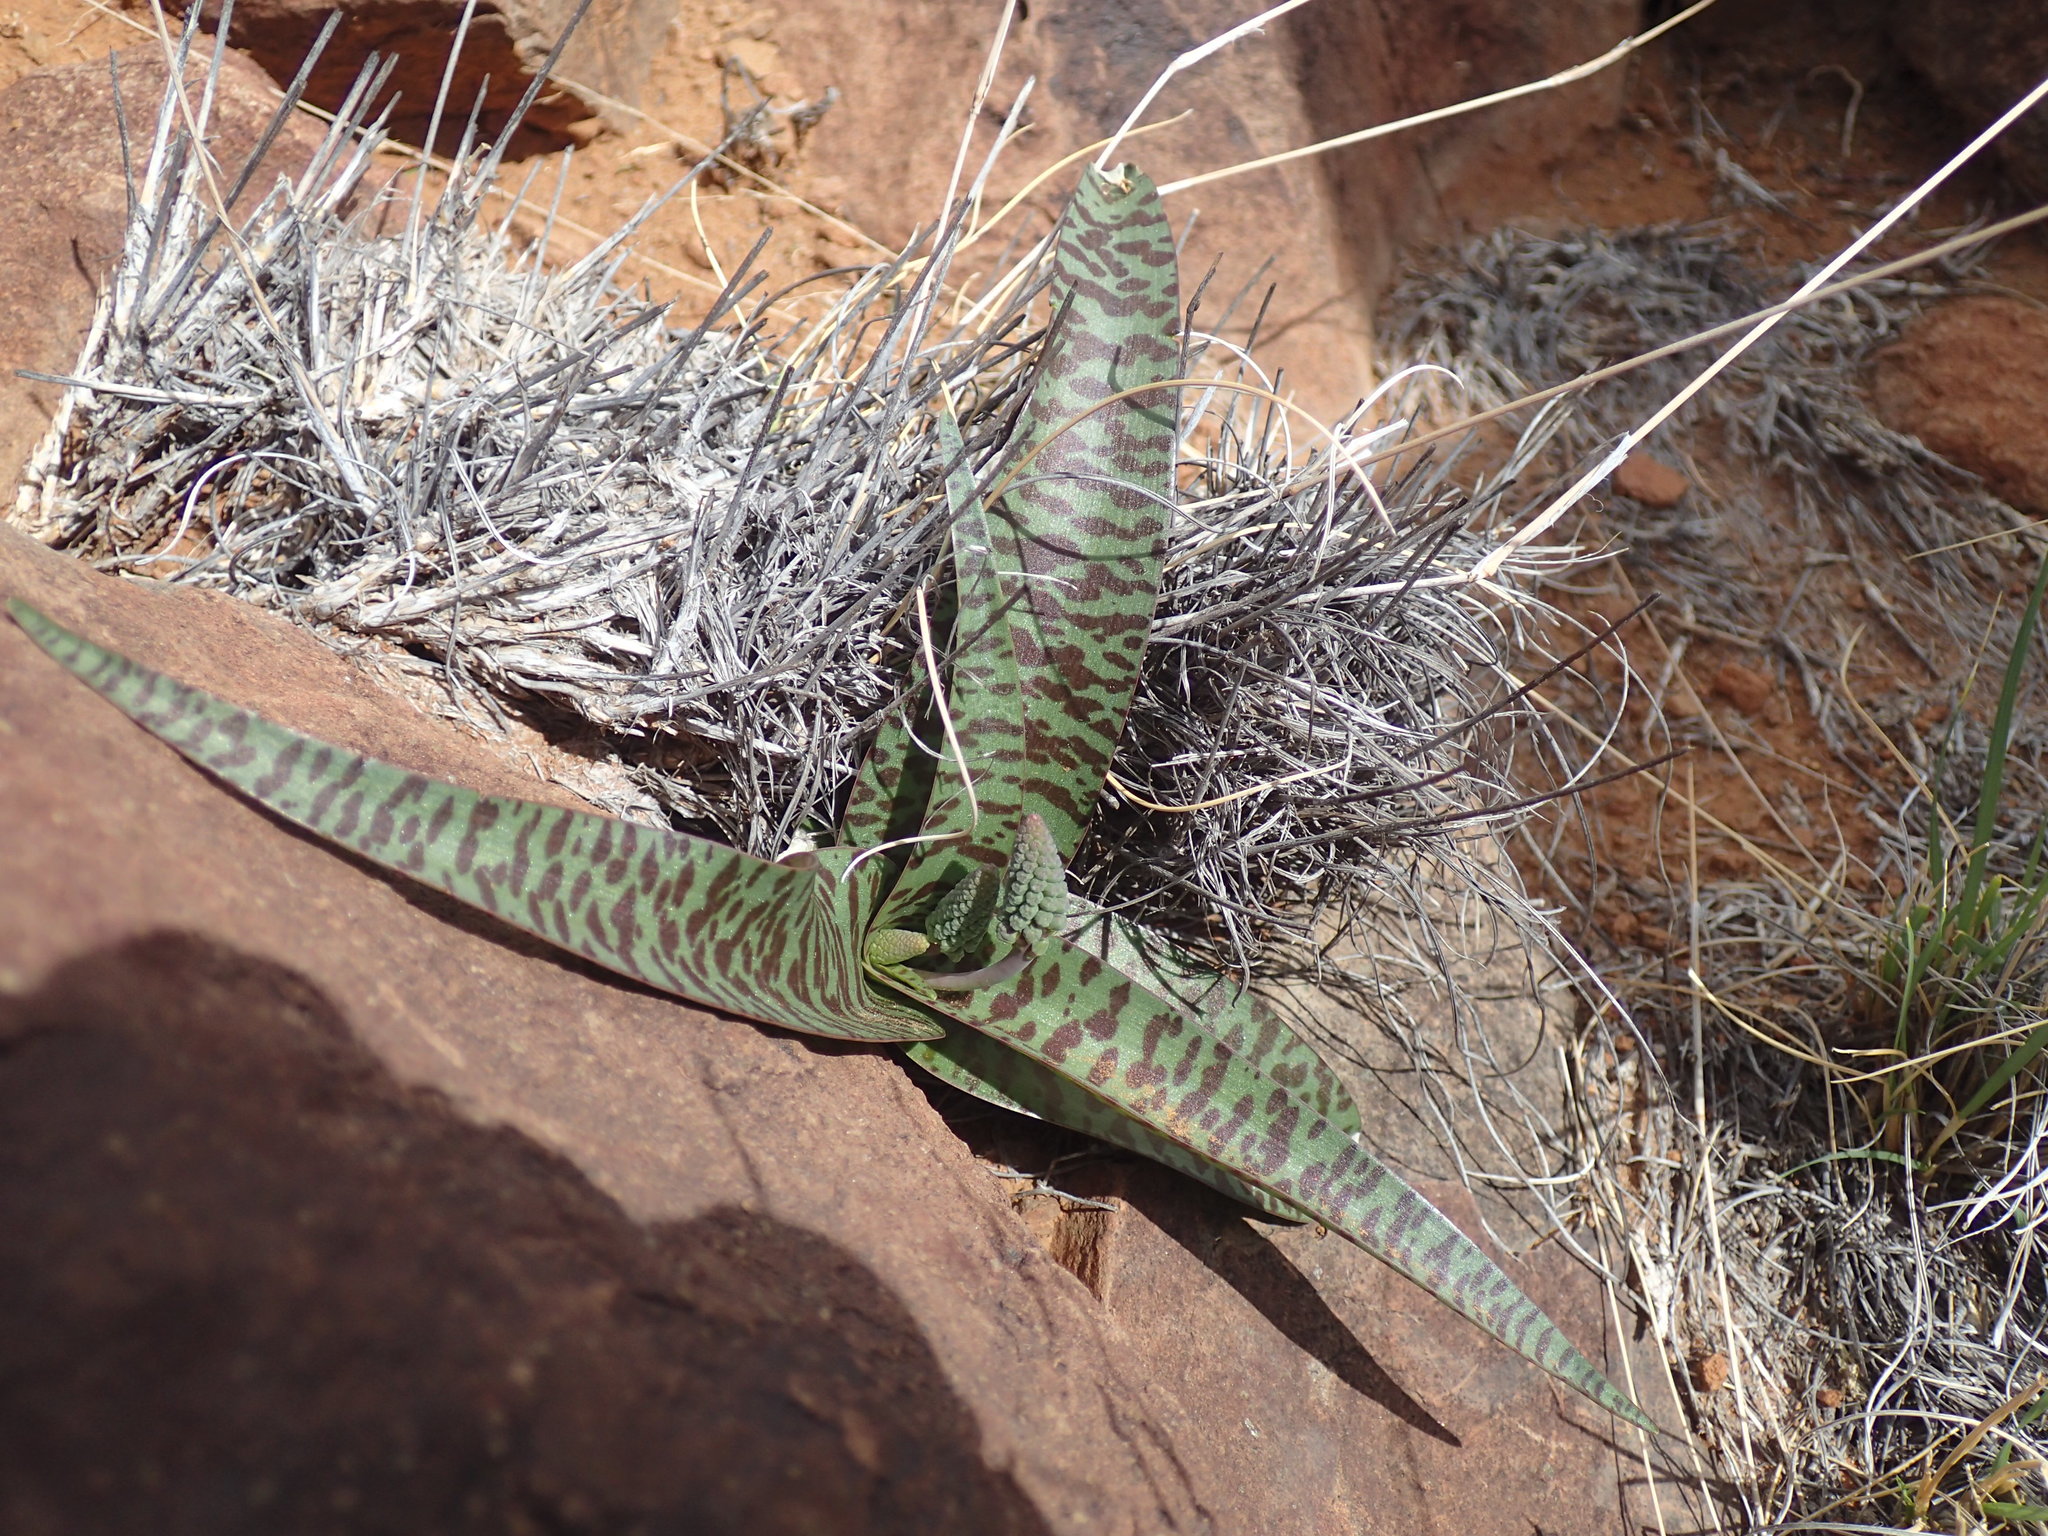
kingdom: Plantae
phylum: Tracheophyta
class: Liliopsida
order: Asparagales
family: Asparagaceae
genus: Ledebouria
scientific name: Ledebouria apertiflora
